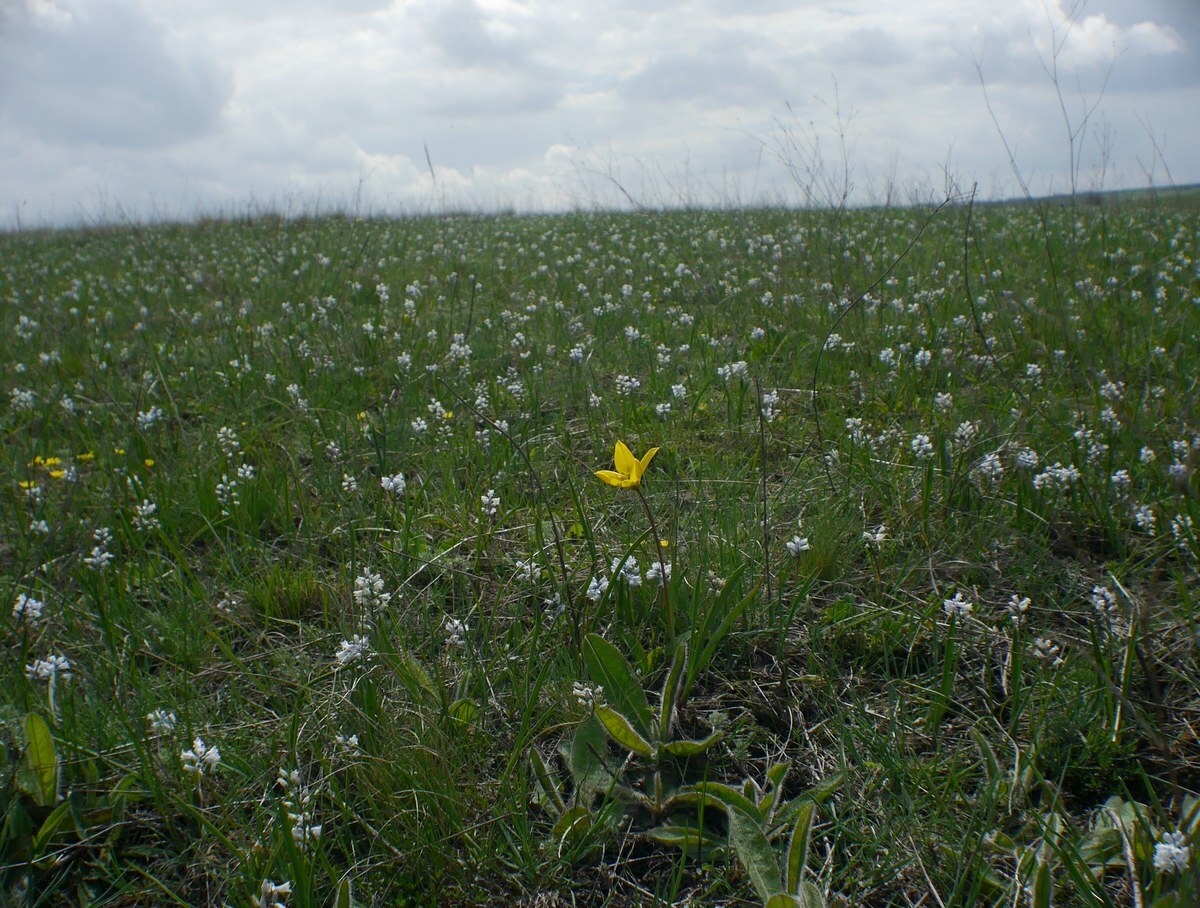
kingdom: Plantae
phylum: Tracheophyta
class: Liliopsida
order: Liliales
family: Liliaceae
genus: Tulipa
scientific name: Tulipa sylvestris
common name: Wild tulip
